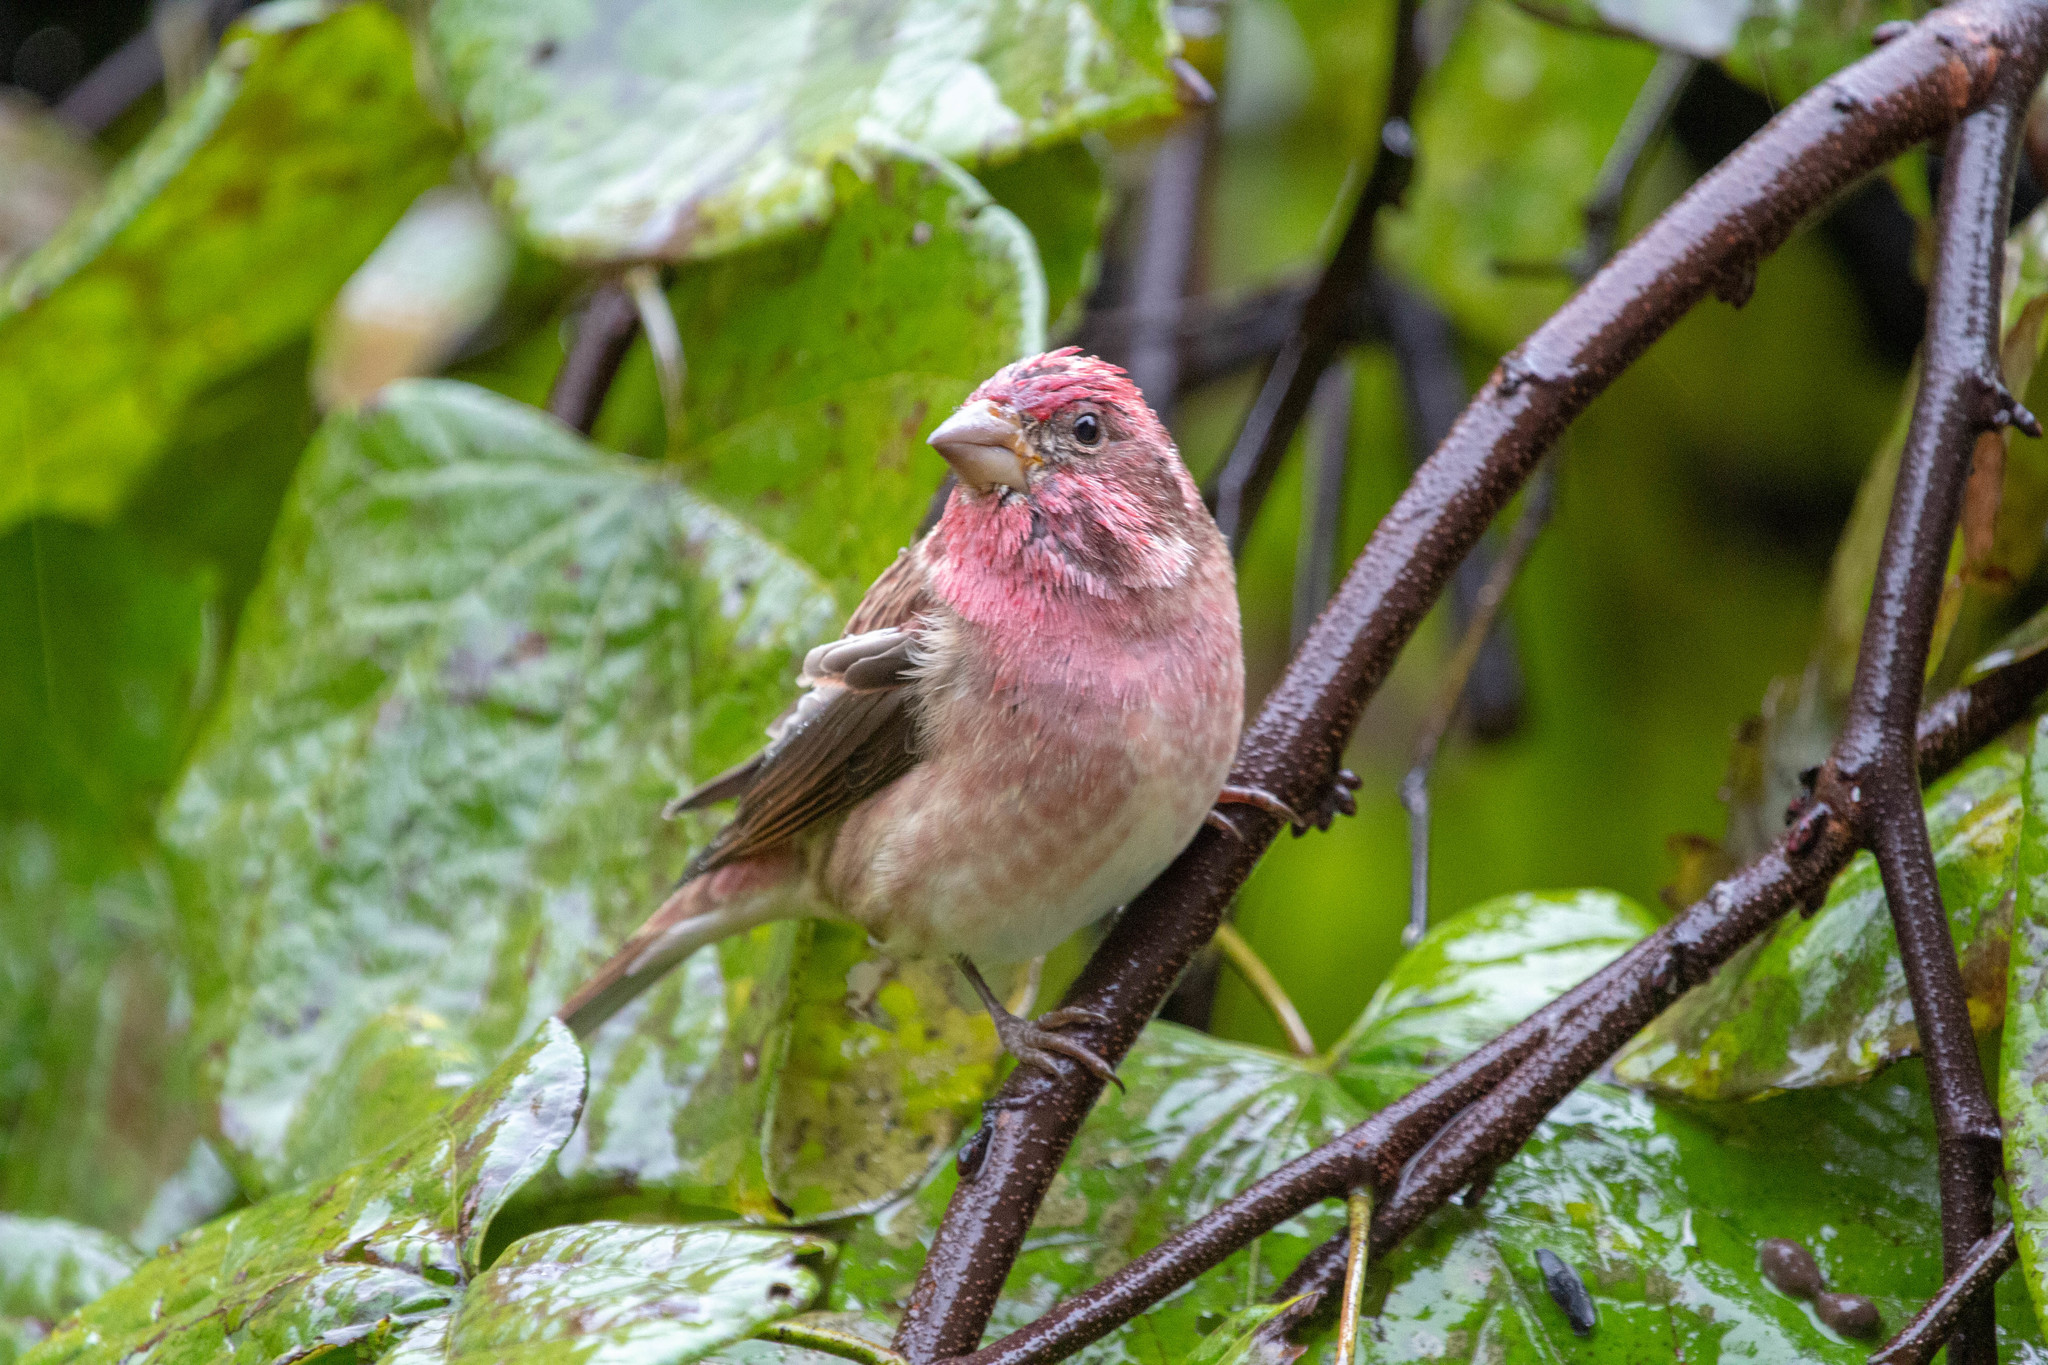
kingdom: Animalia
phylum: Chordata
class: Aves
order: Passeriformes
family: Fringillidae
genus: Haemorhous
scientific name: Haemorhous purpureus
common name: Purple finch
